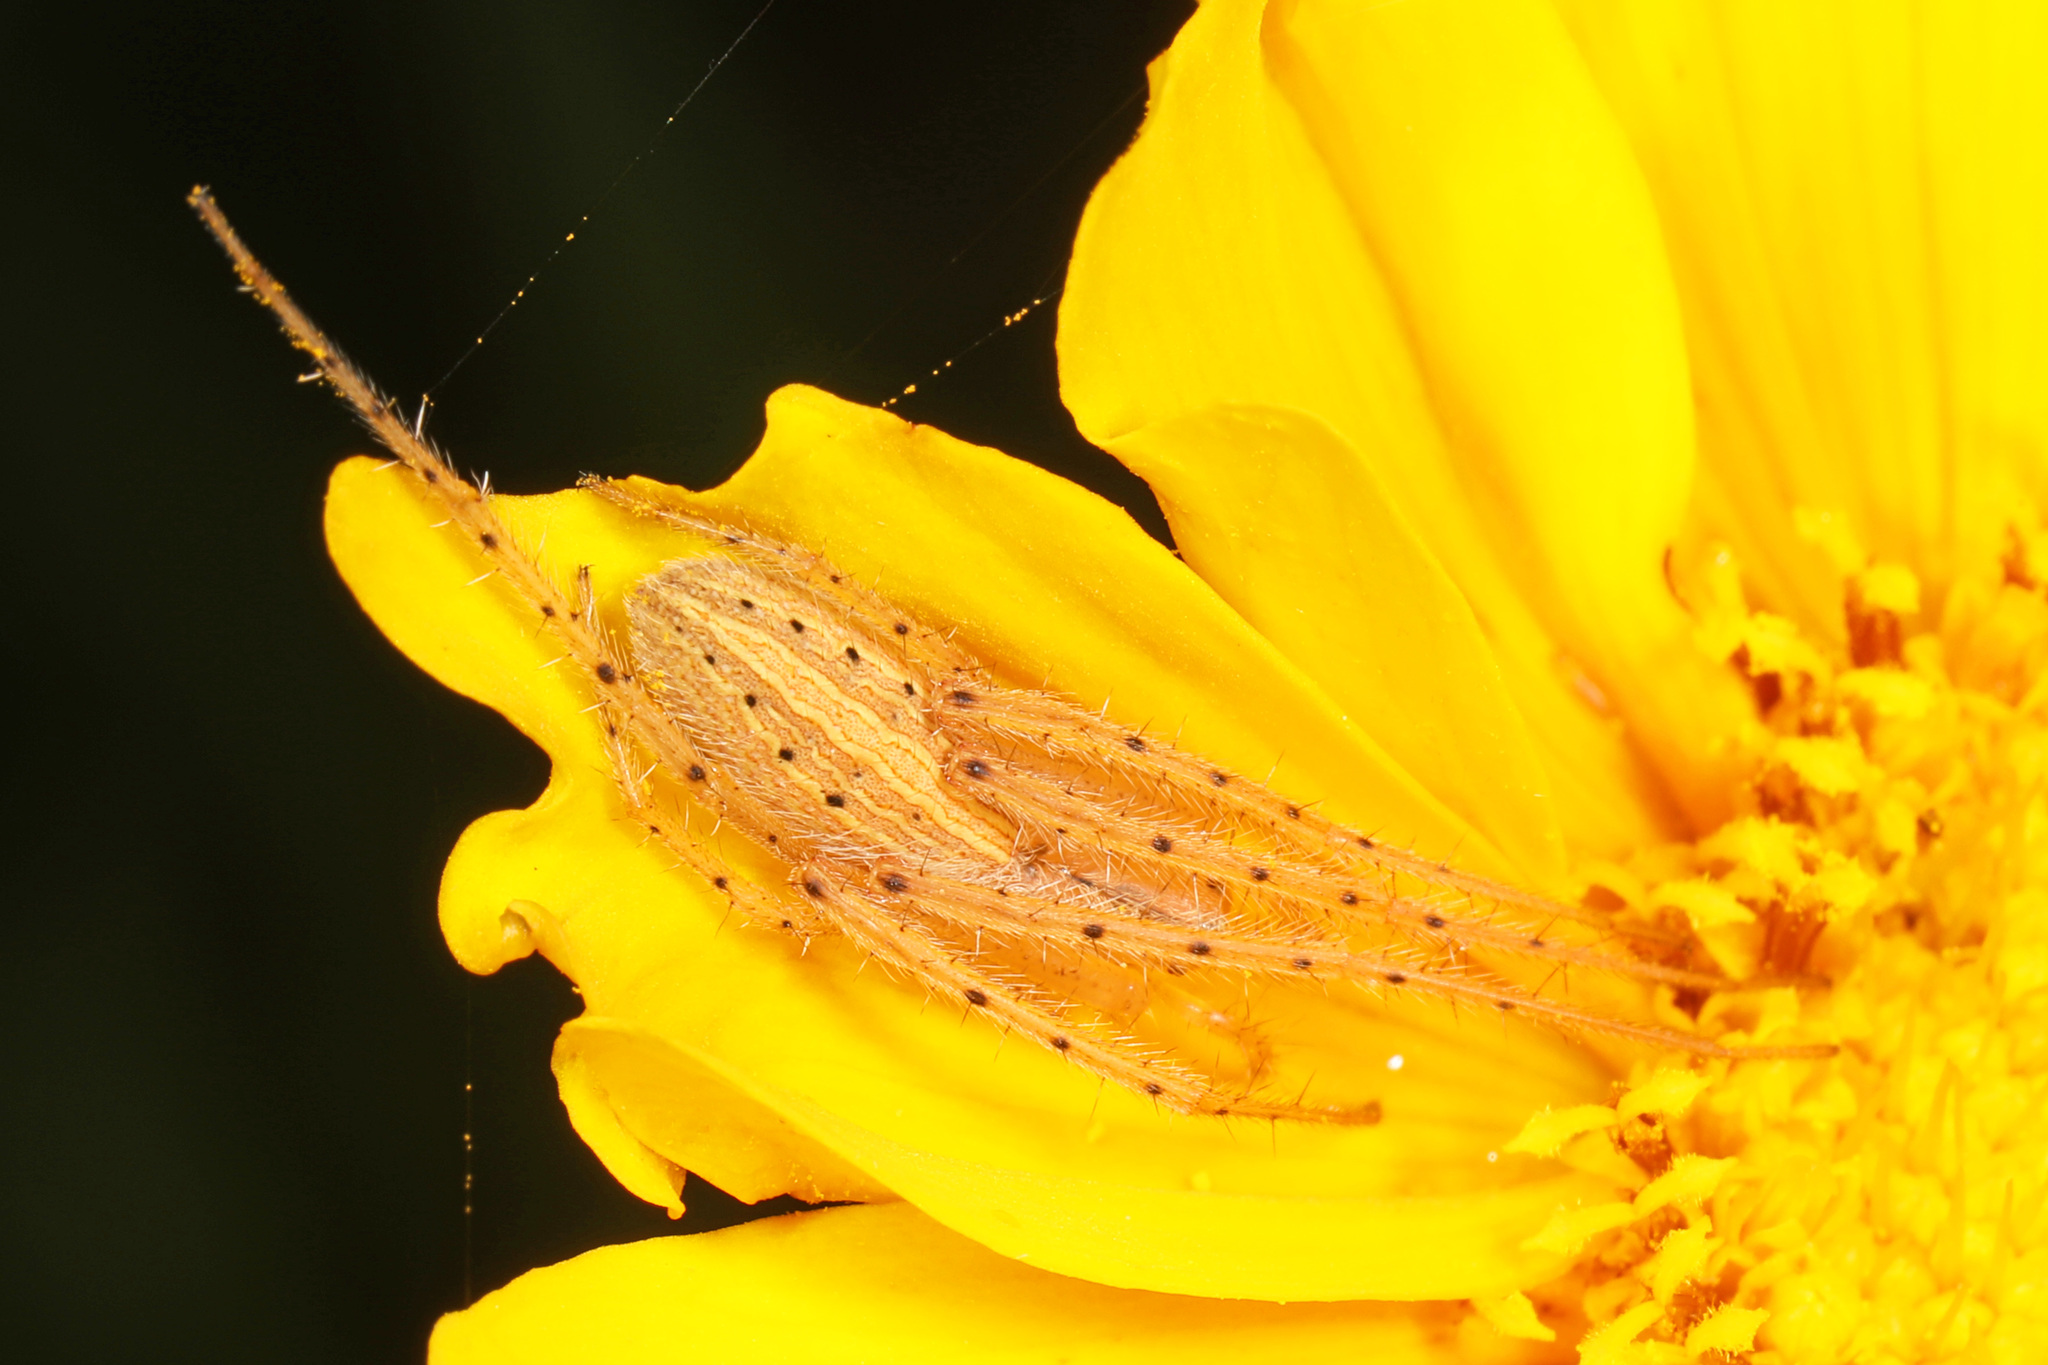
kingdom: Animalia
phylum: Arthropoda
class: Arachnida
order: Araneae
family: Araneidae
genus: Larinia
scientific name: Larinia directa
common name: Orb weavers
